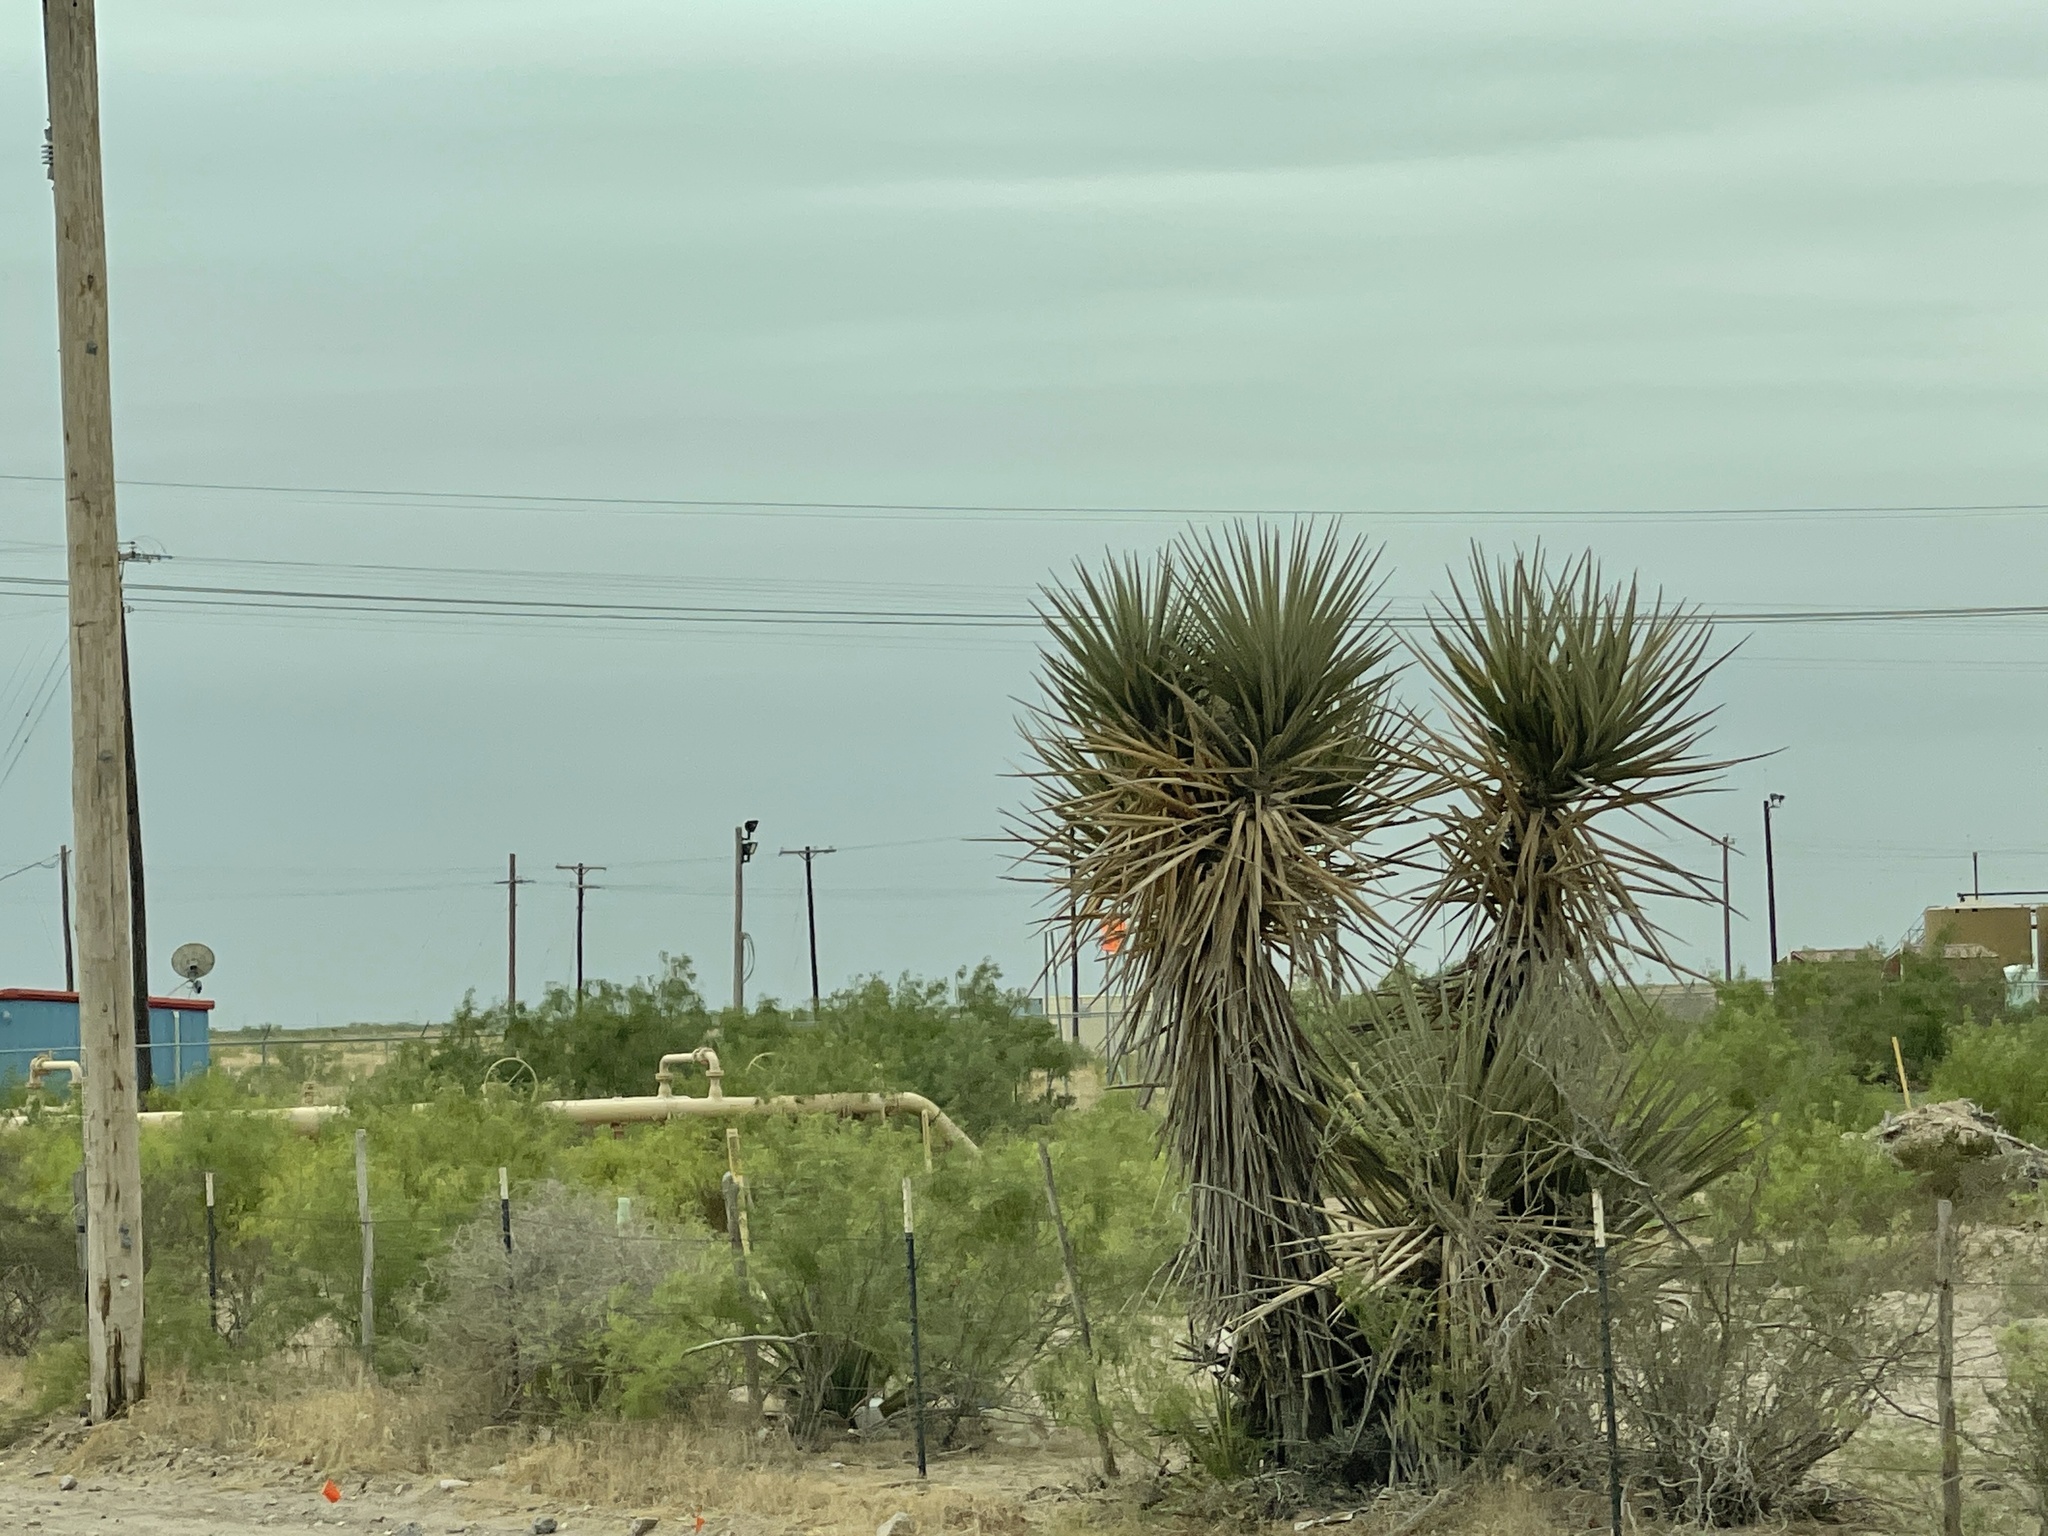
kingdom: Plantae
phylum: Tracheophyta
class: Liliopsida
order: Asparagales
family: Asparagaceae
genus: Yucca
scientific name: Yucca treculiana
